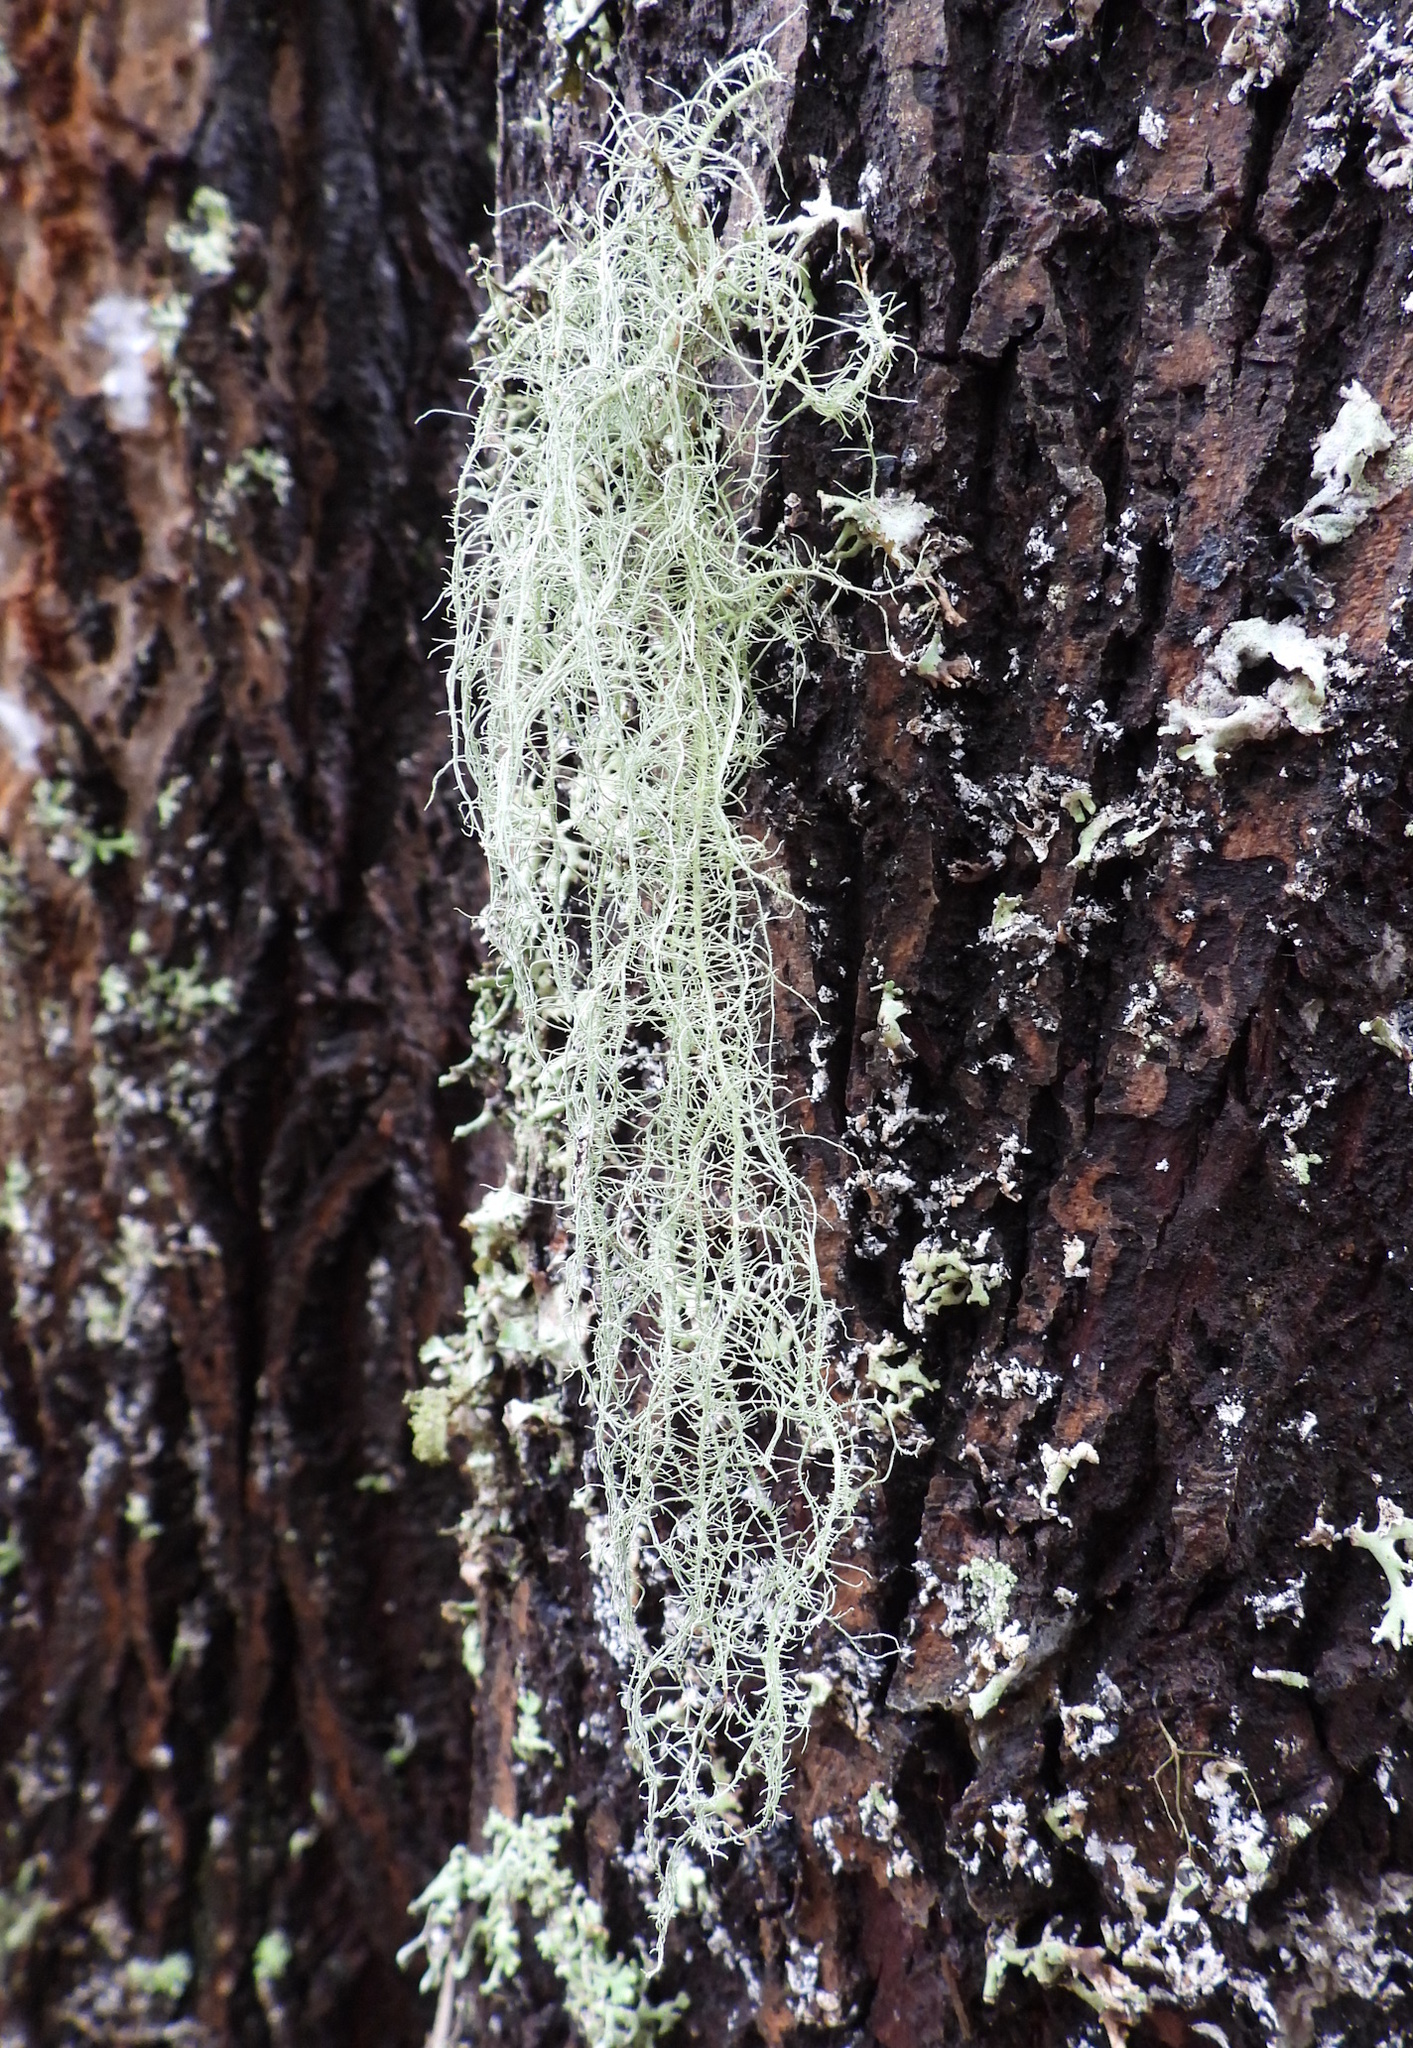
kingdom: Fungi
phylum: Ascomycota
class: Lecanoromycetes
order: Lecanorales
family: Parmeliaceae
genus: Usnea
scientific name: Usnea dasopoga
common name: Fishbone beard lichen
